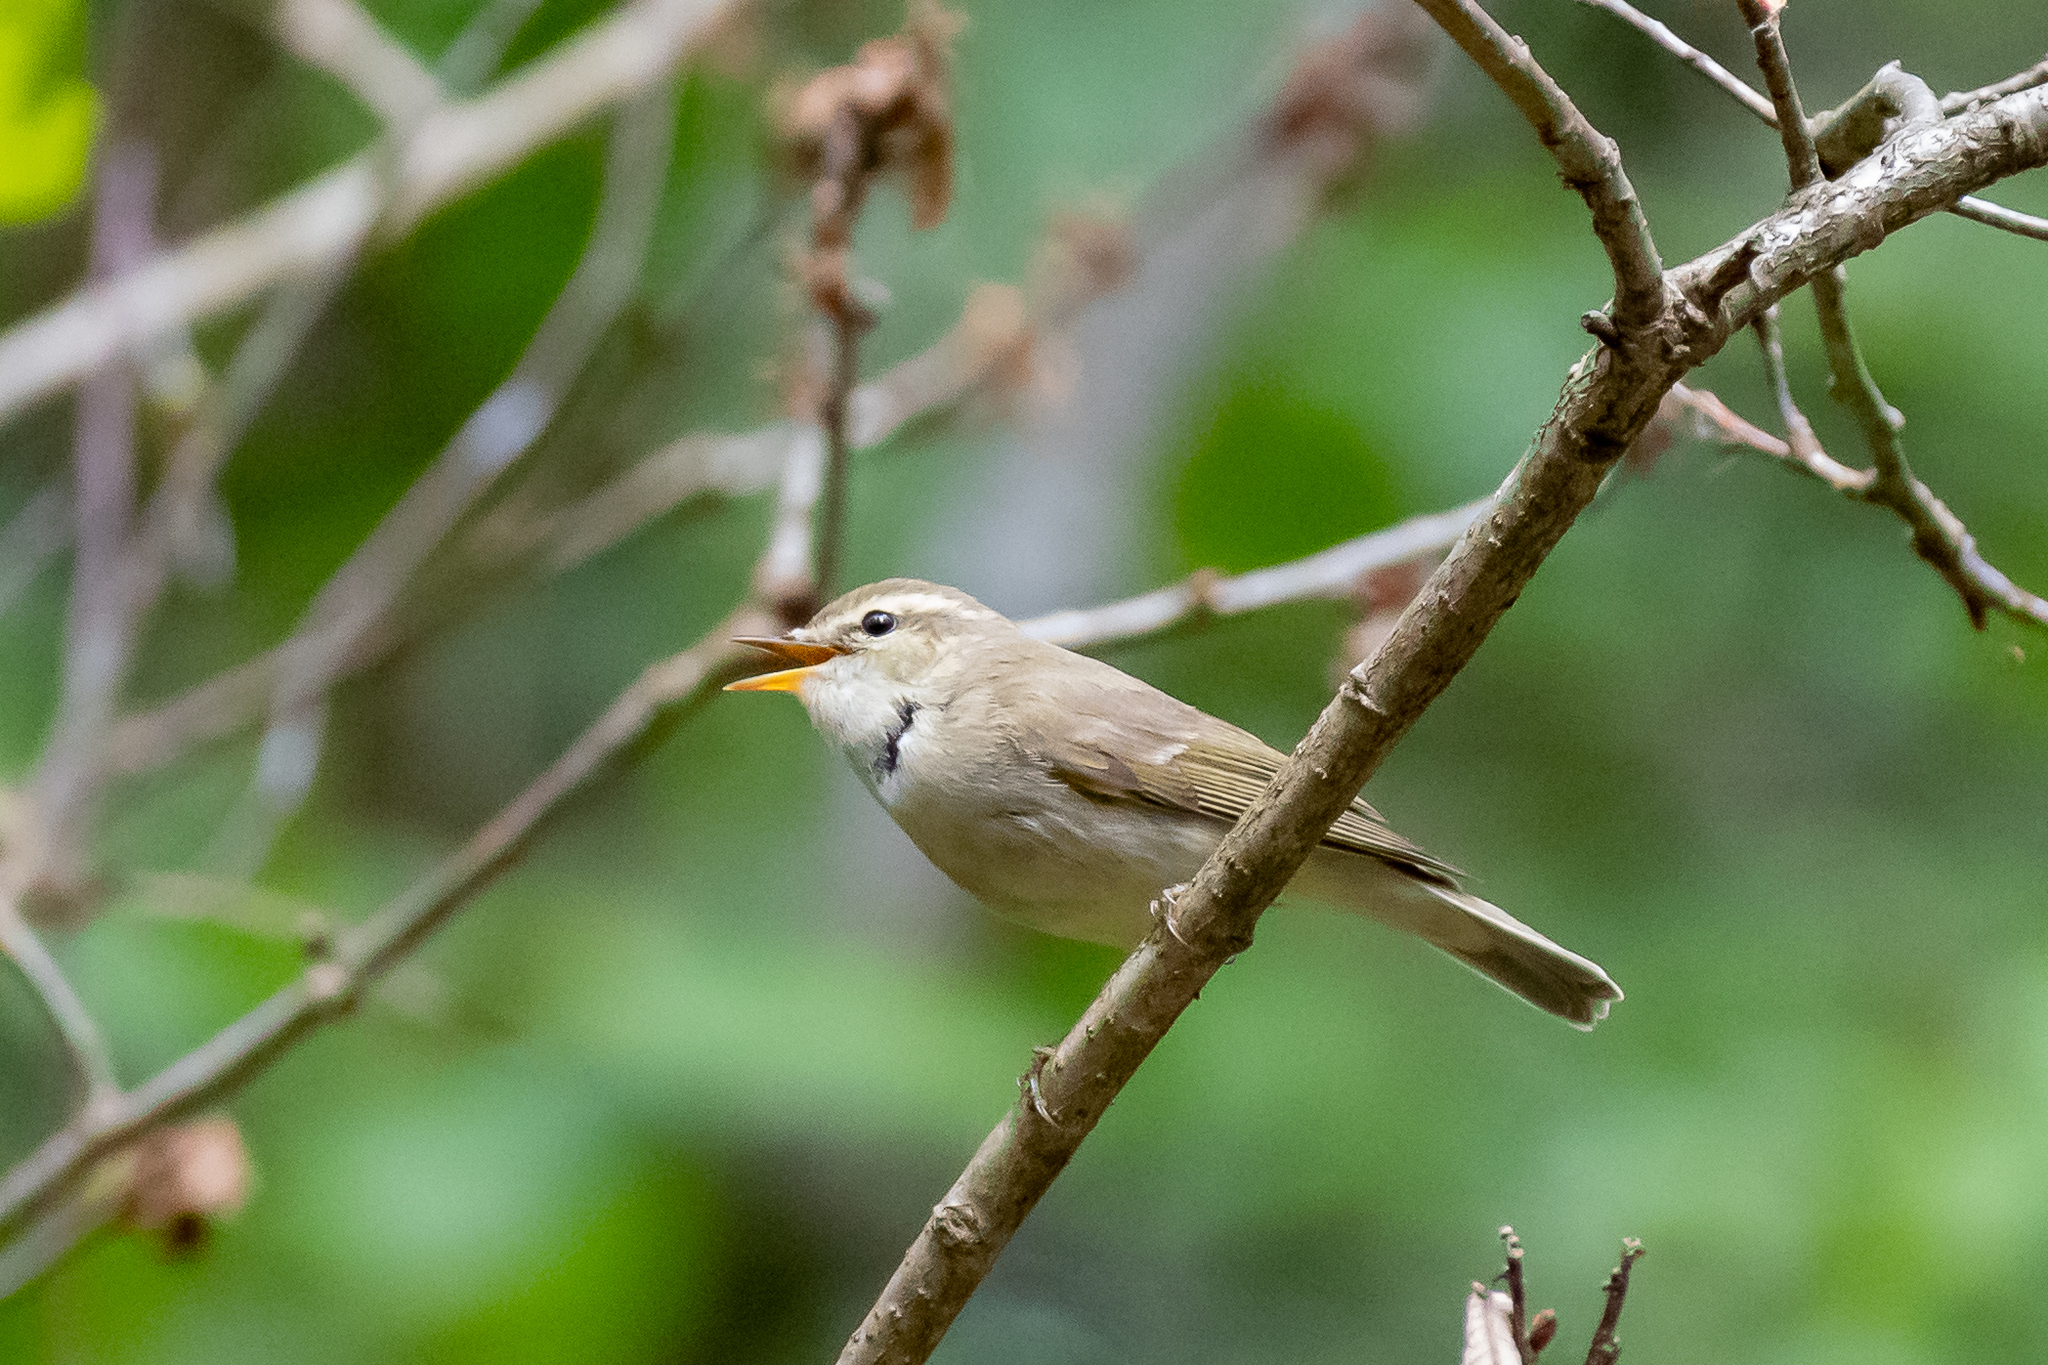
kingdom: Animalia
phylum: Chordata
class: Aves
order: Passeriformes
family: Phylloscopidae
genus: Phylloscopus
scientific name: Phylloscopus trochiloides
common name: Greenish warbler
